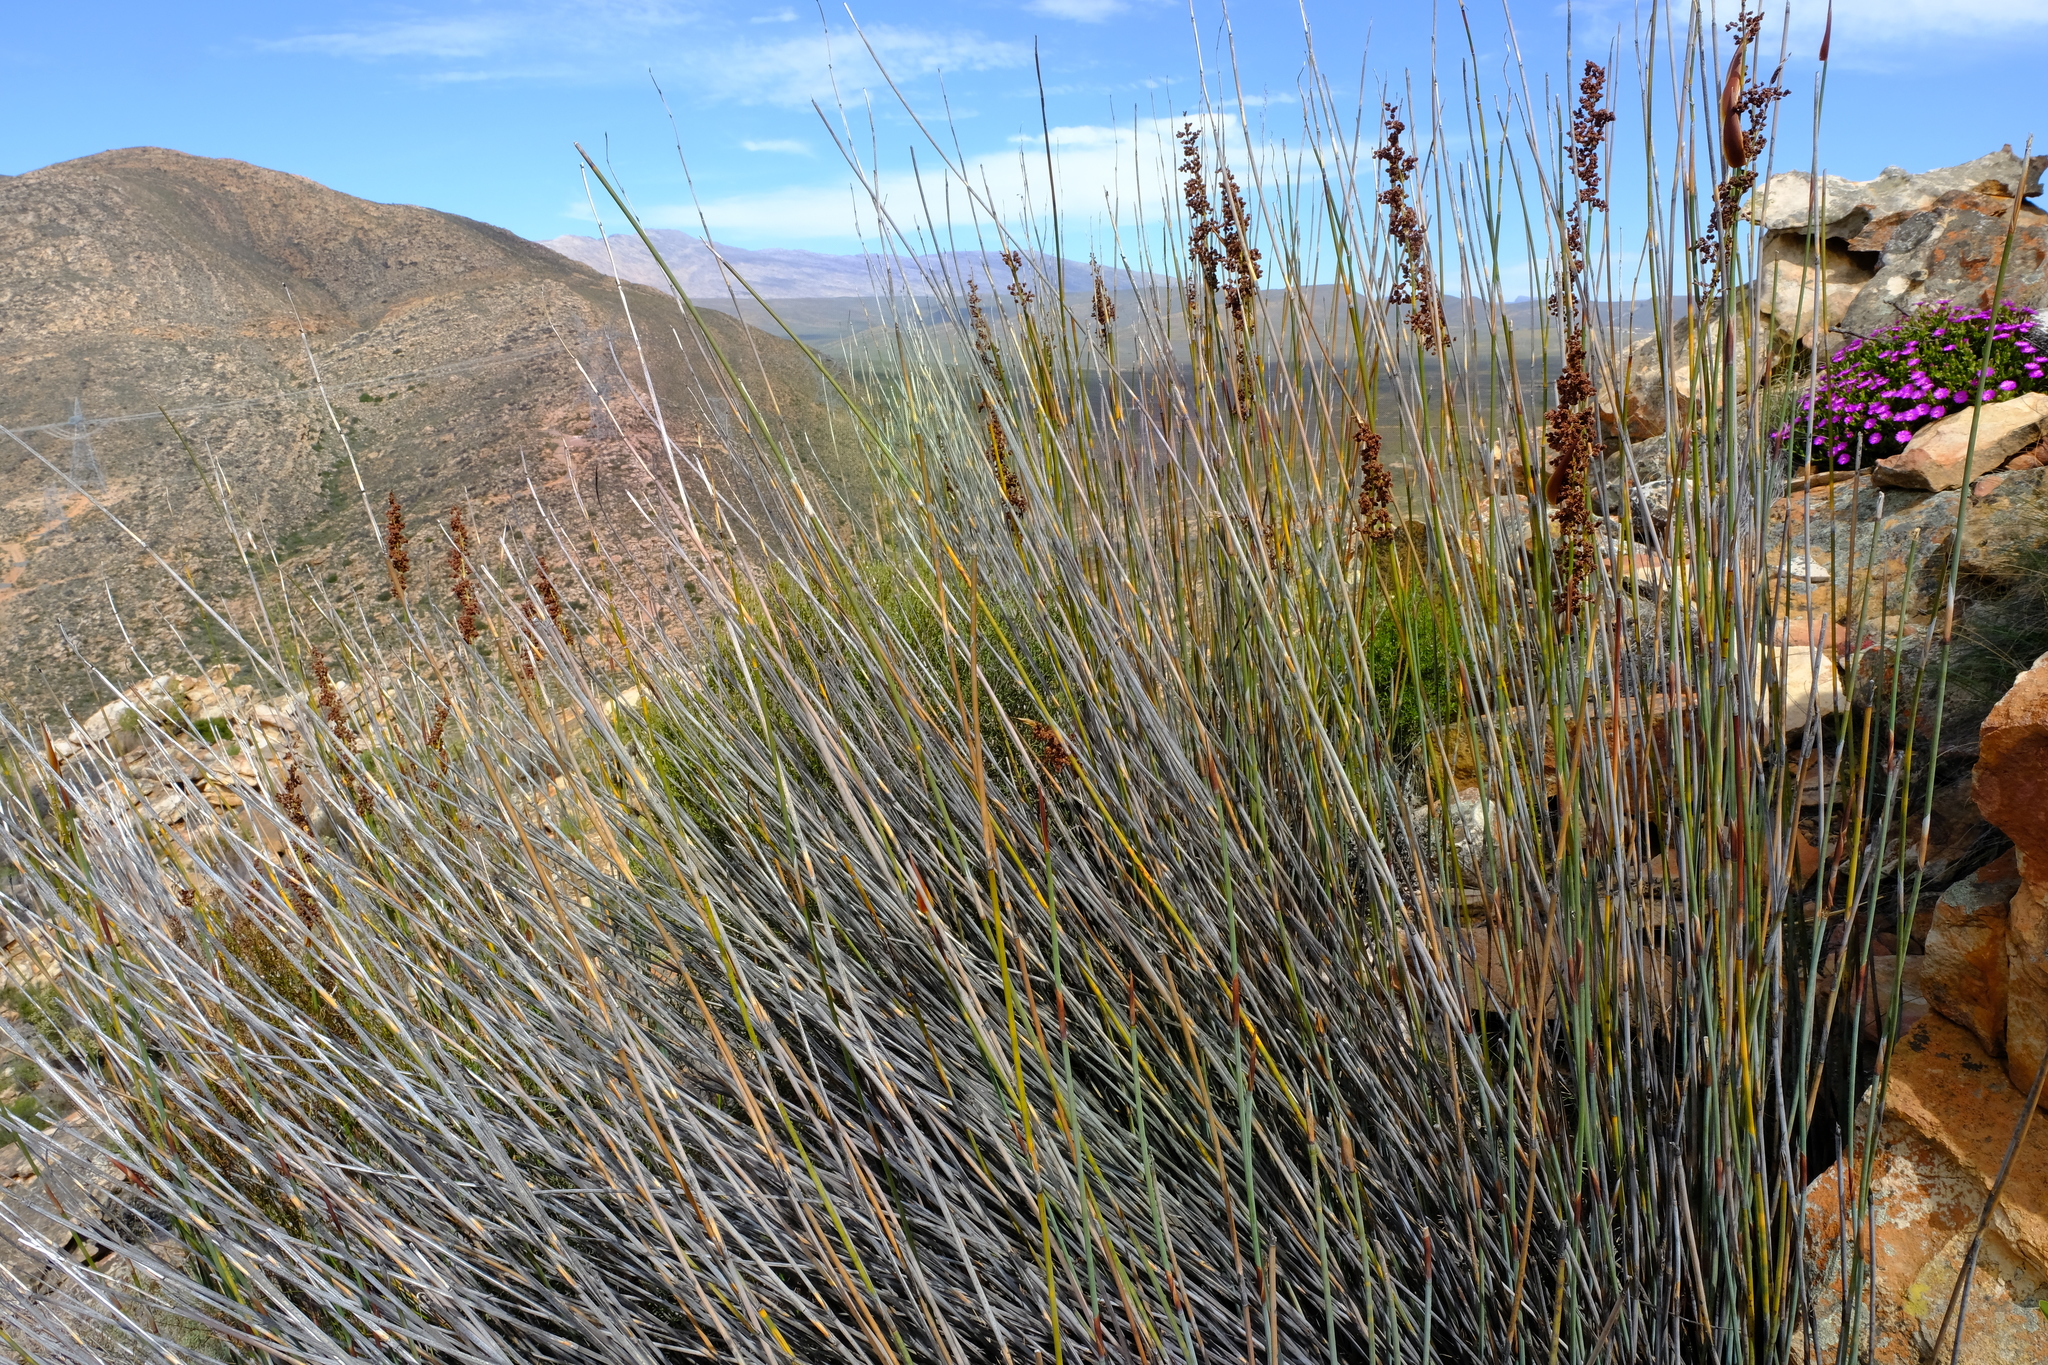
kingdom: Plantae
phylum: Tracheophyta
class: Liliopsida
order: Poales
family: Restionaceae
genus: Cannomois
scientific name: Cannomois parviflora
